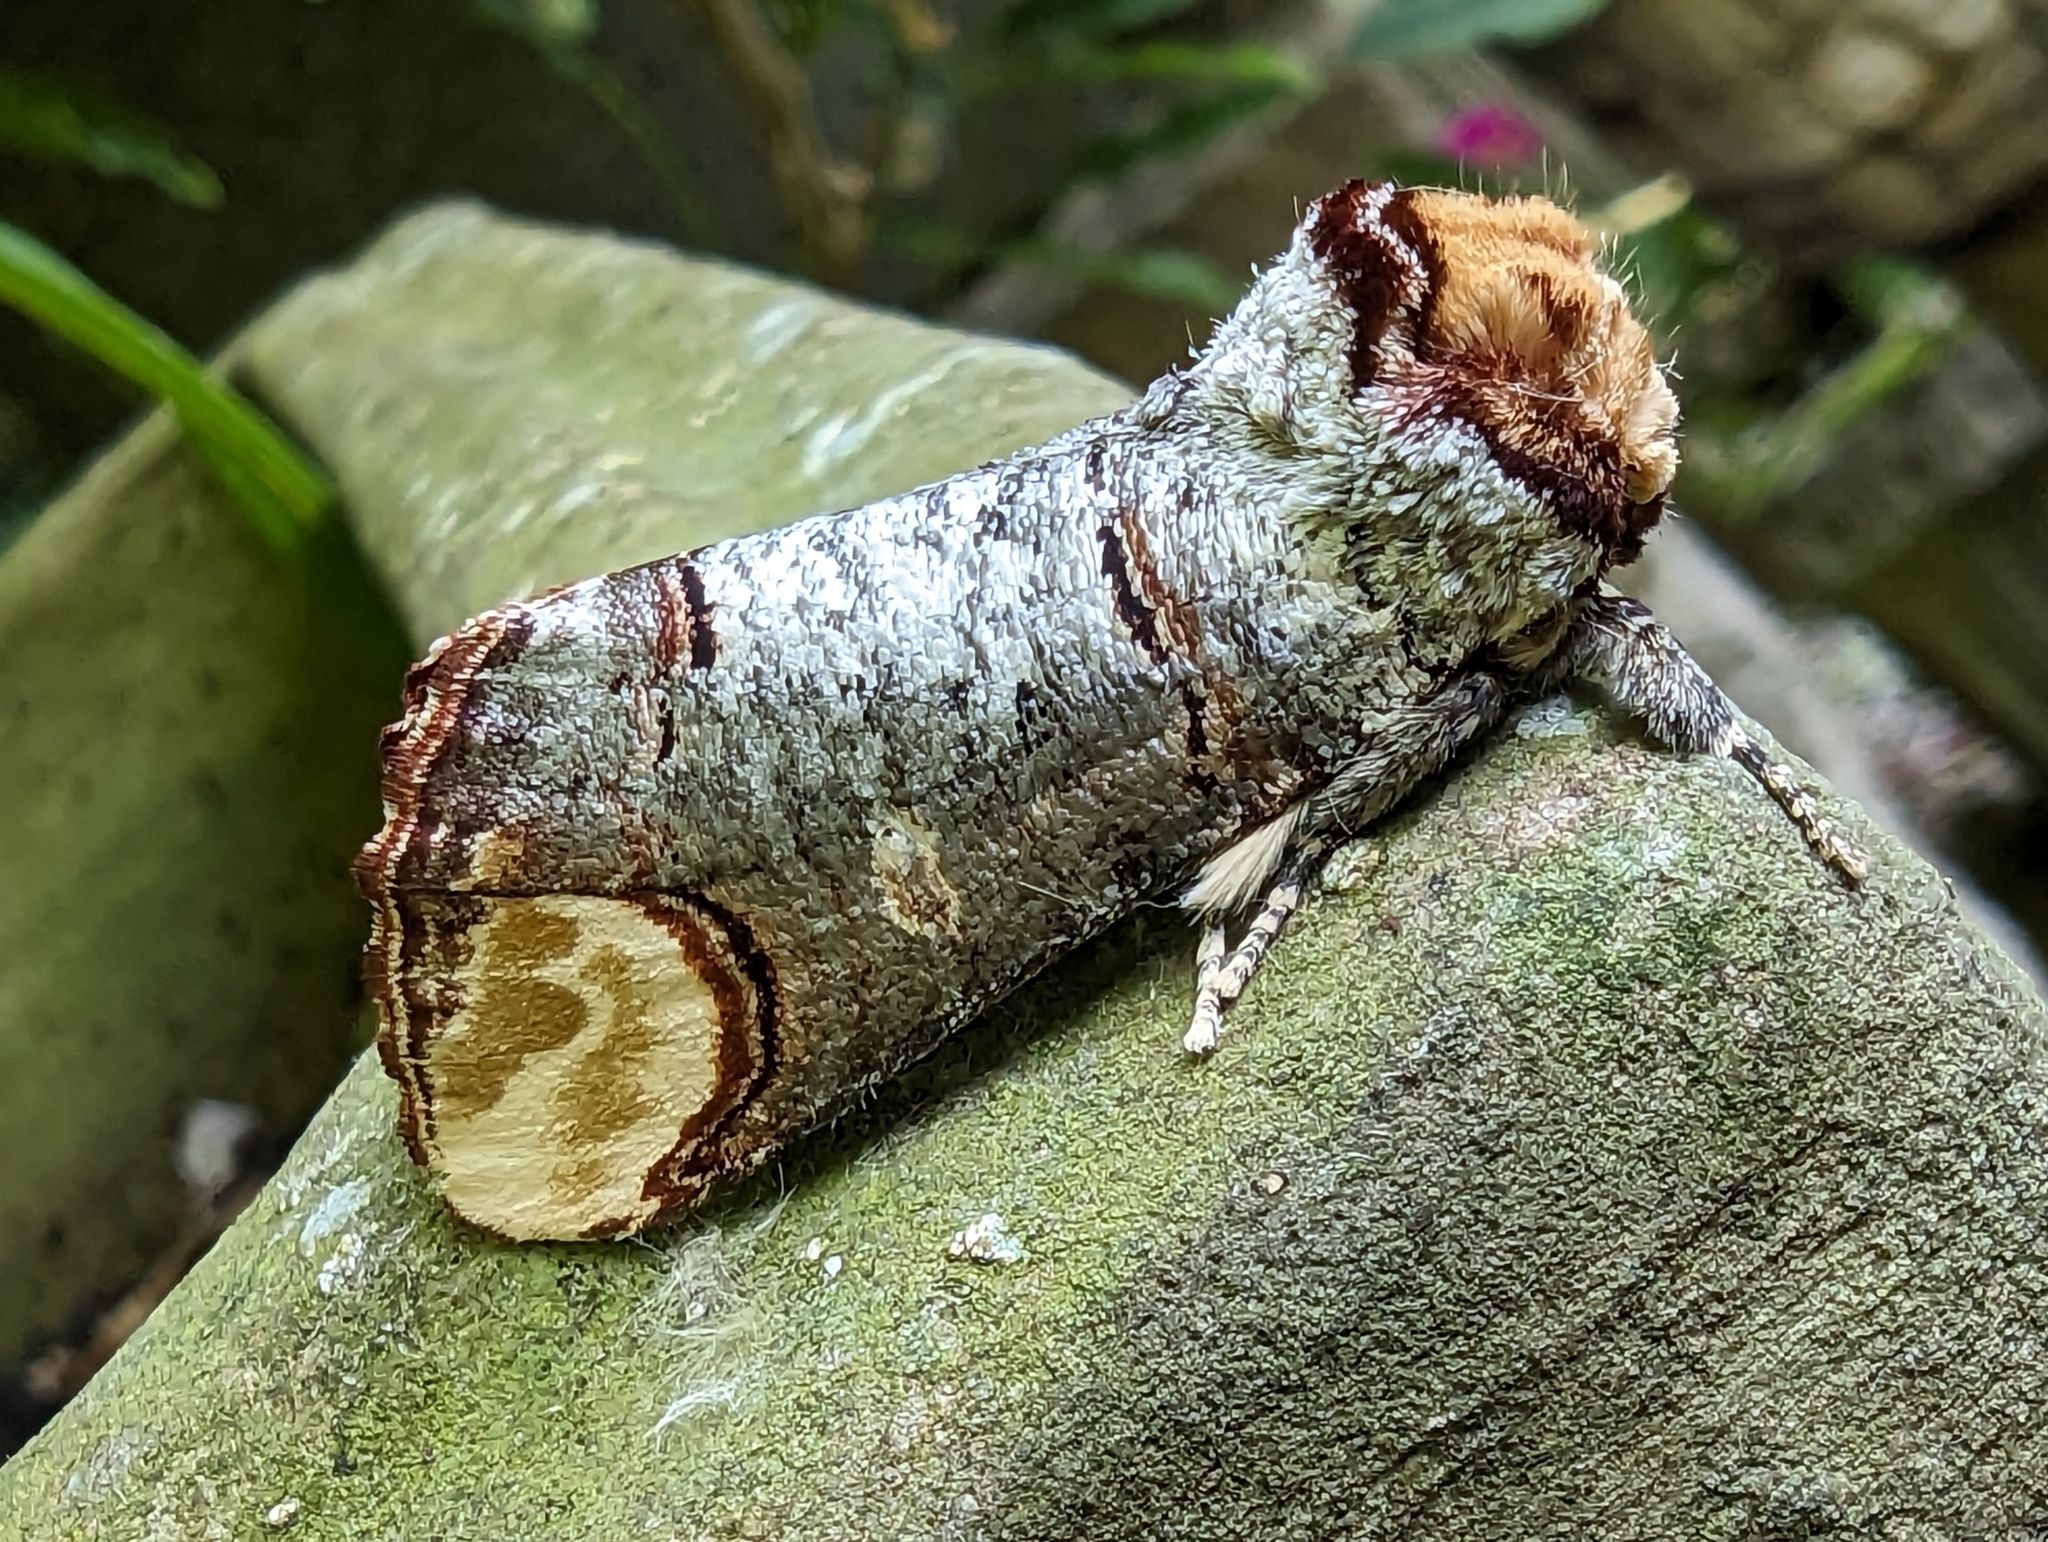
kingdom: Animalia
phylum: Arthropoda
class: Insecta
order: Lepidoptera
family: Notodontidae
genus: Phalera
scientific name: Phalera bucephala
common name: Buff-tip
